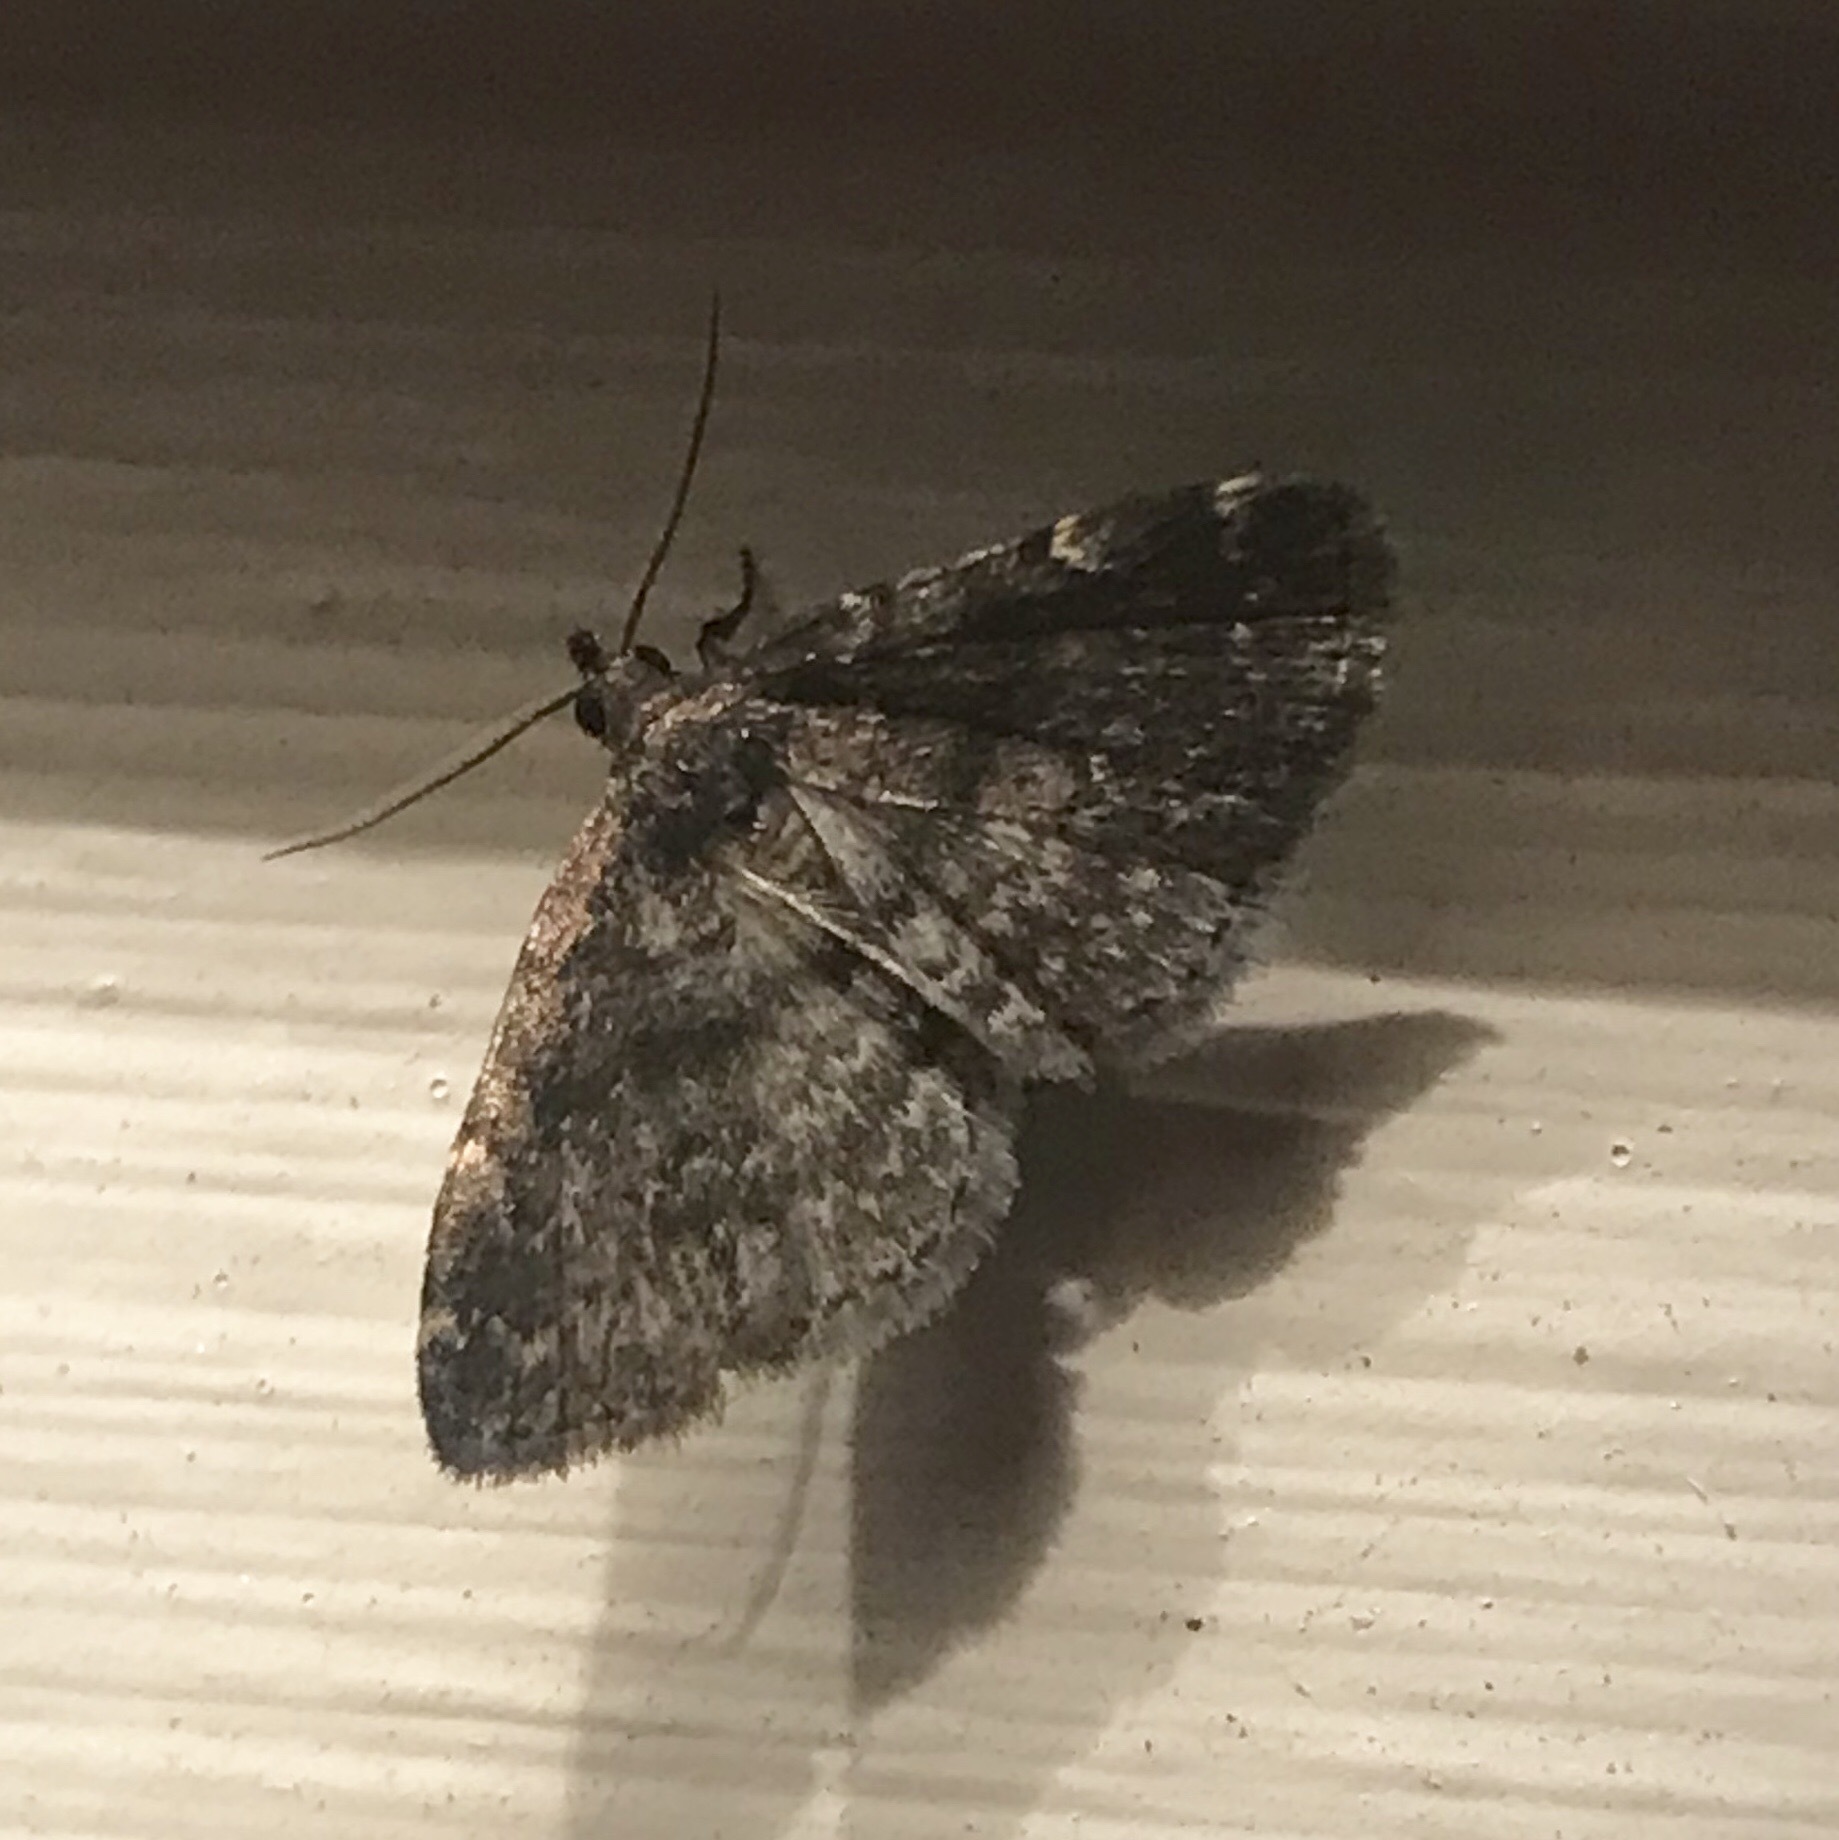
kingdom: Animalia
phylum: Arthropoda
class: Insecta
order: Lepidoptera
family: Erebidae
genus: Idia
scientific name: Idia forbesii
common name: Forbes' idia moth
